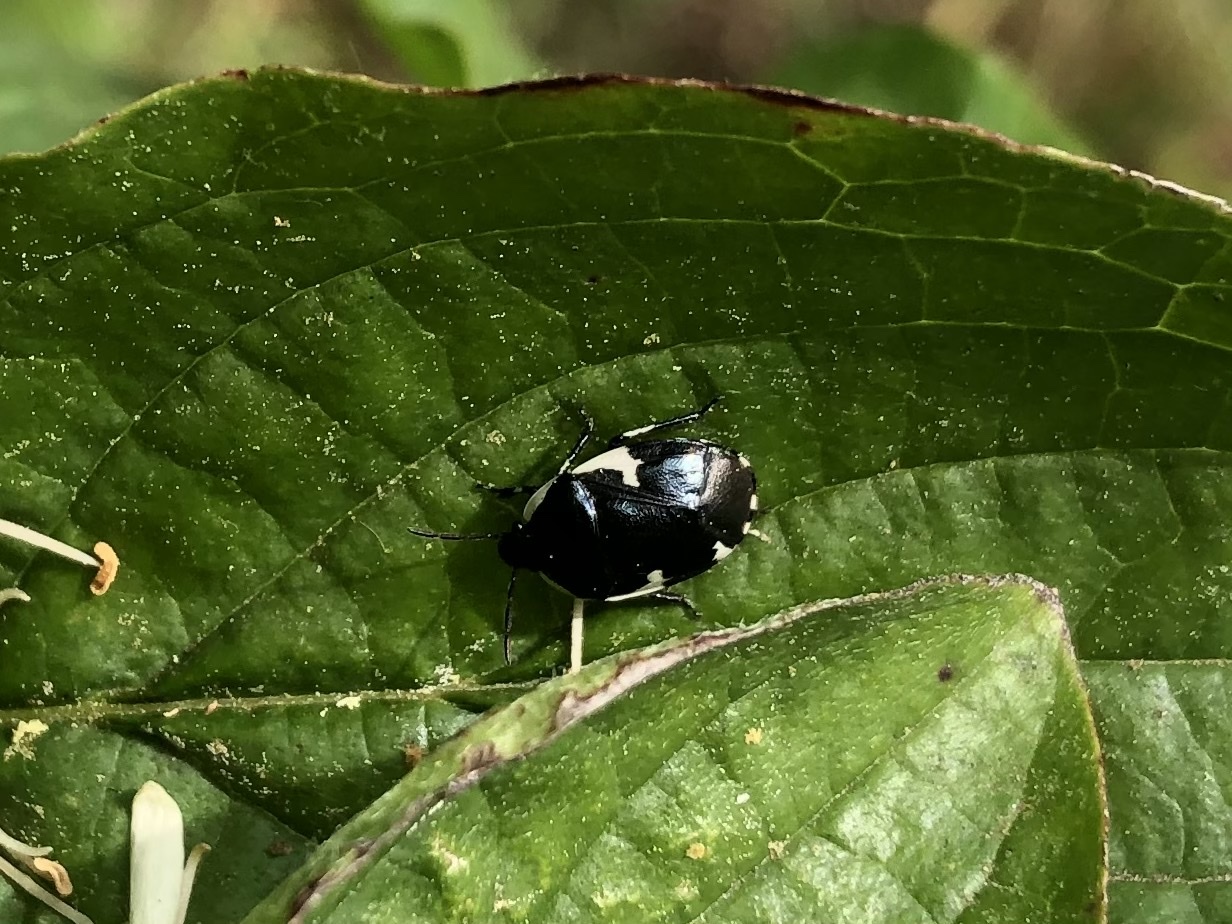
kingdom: Animalia
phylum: Arthropoda
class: Insecta
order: Hemiptera
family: Cydnidae
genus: Tritomegas
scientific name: Tritomegas sexmaculatus
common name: Rambur's pied shieldbug
